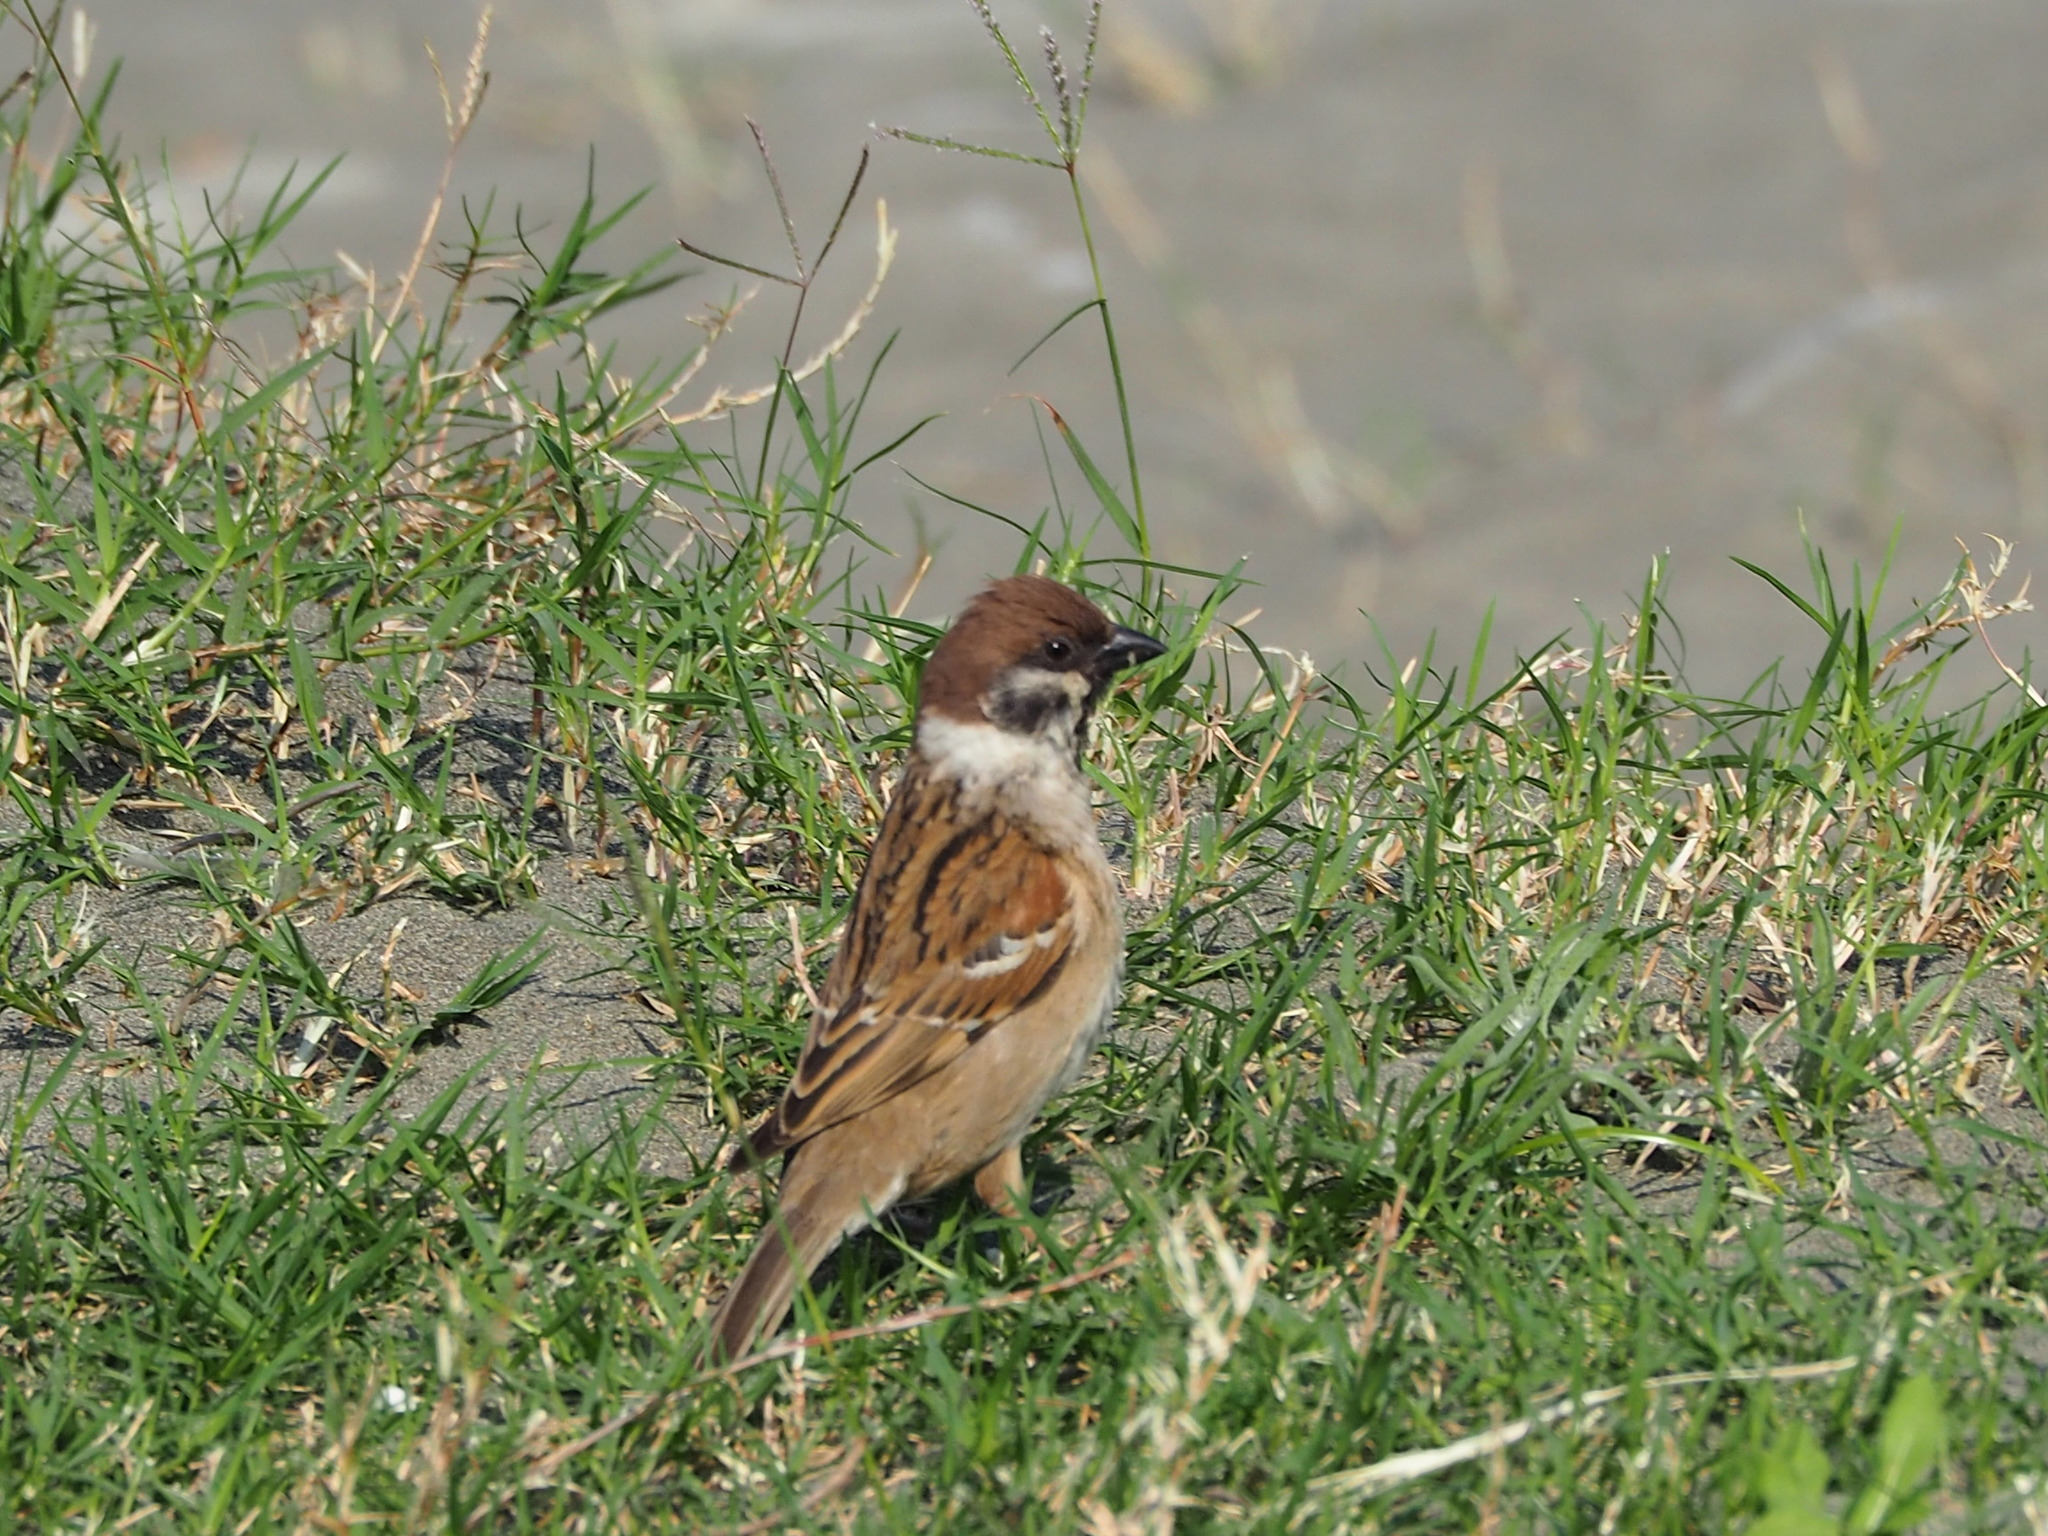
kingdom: Animalia
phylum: Chordata
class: Aves
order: Passeriformes
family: Passeridae
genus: Passer
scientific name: Passer montanus
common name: Eurasian tree sparrow
